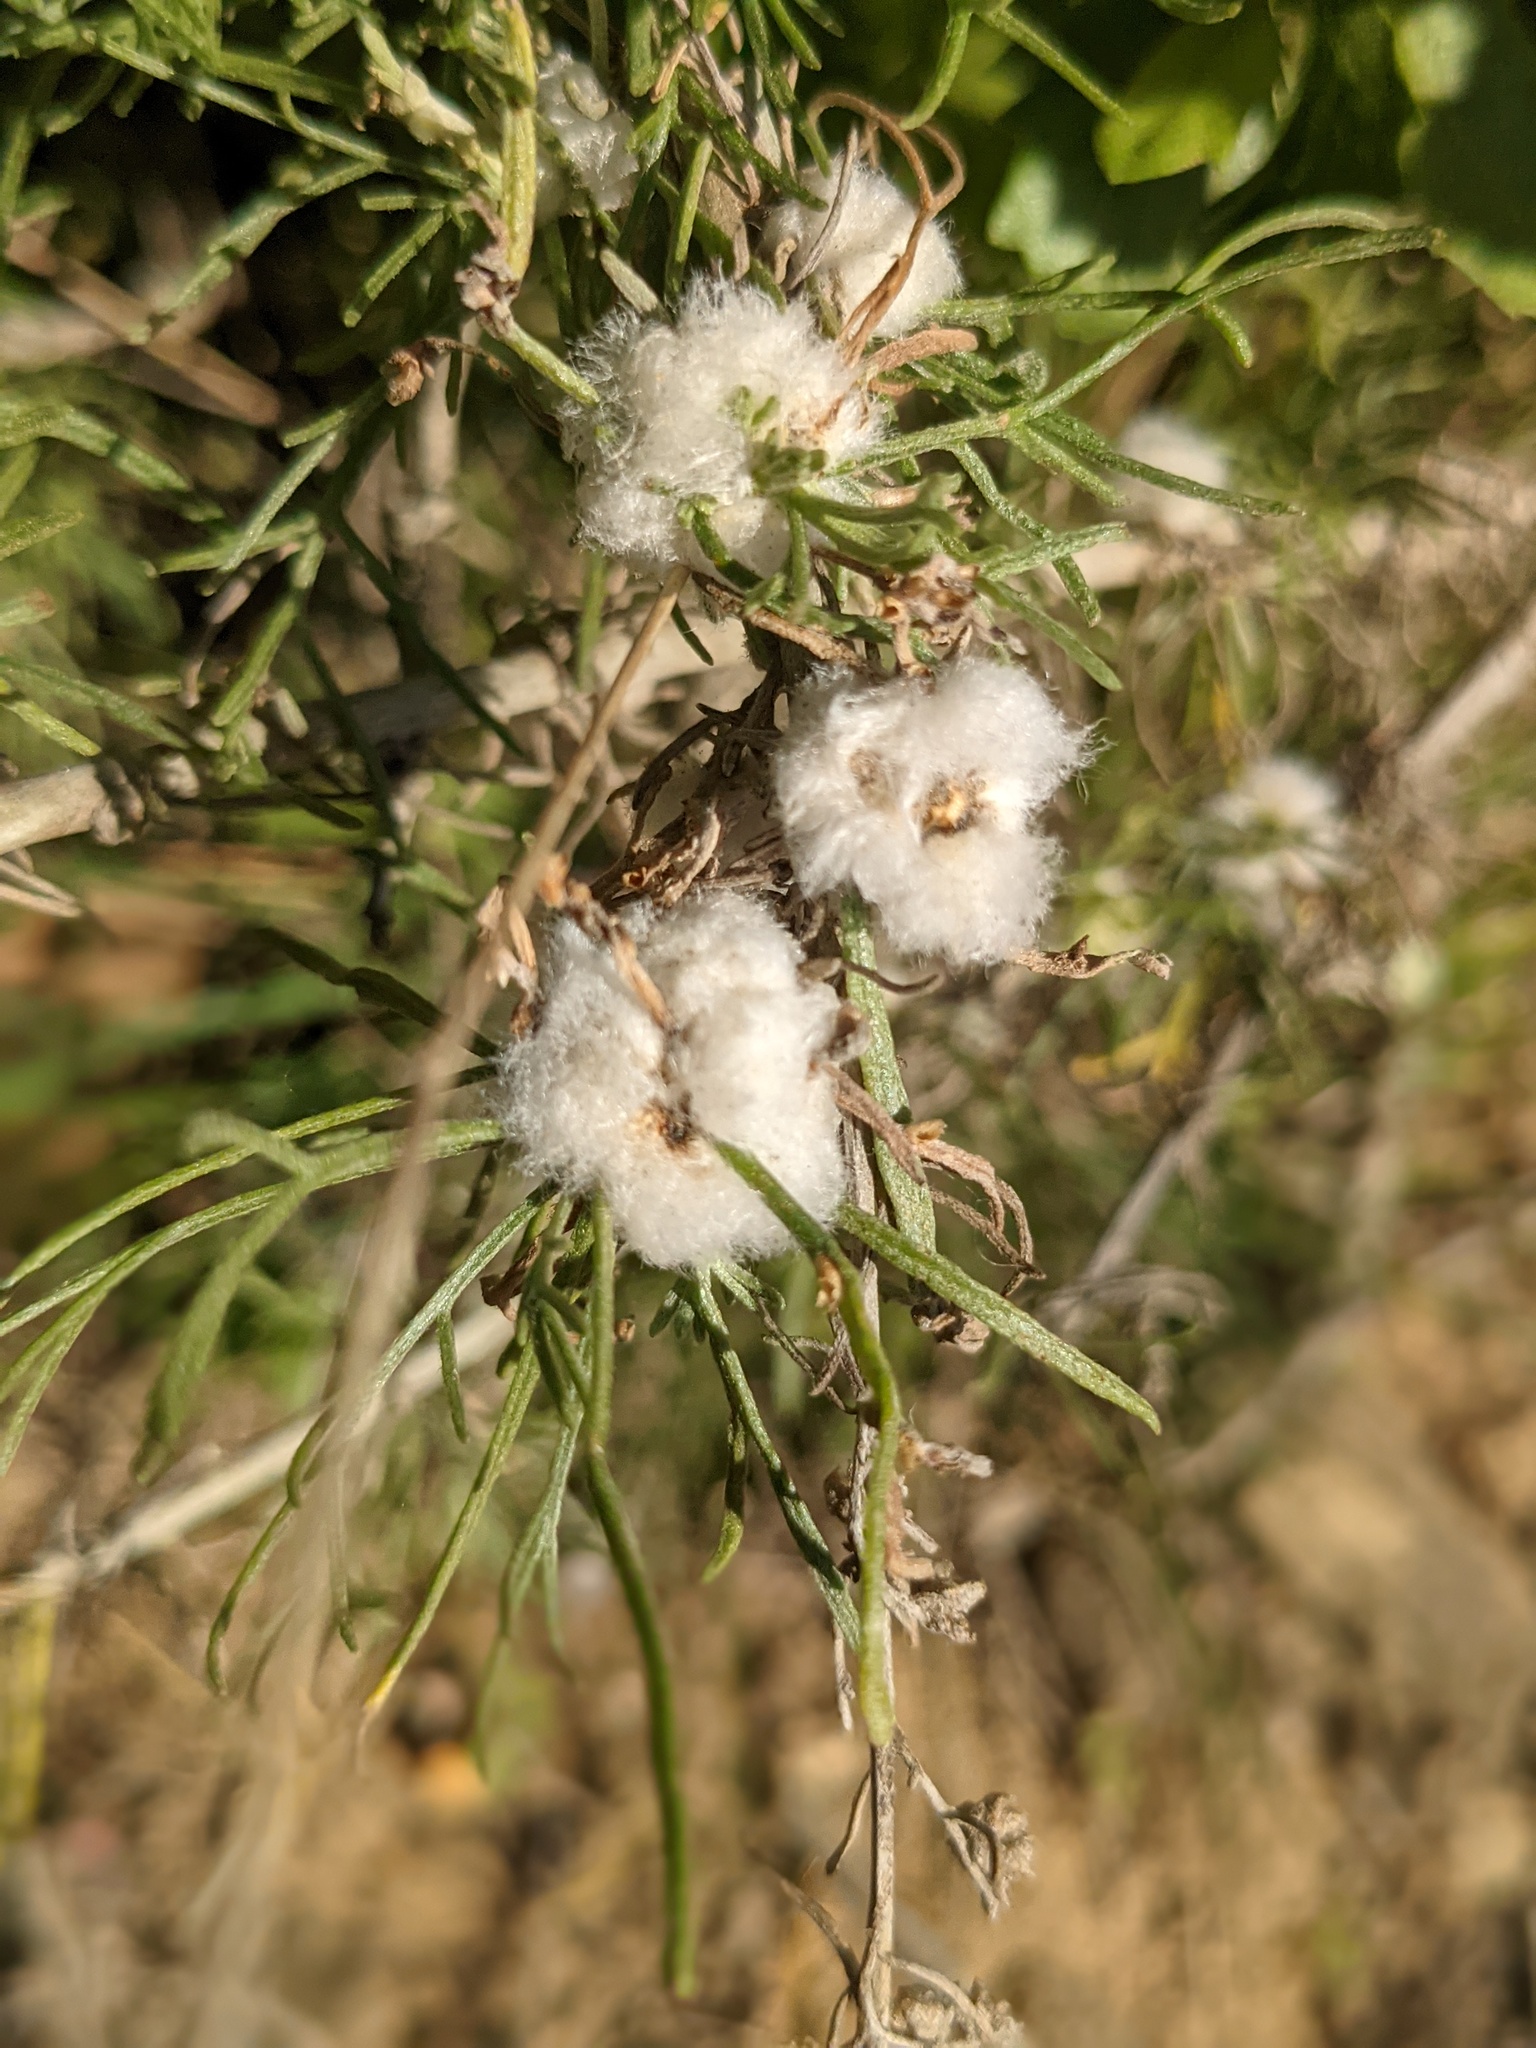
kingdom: Animalia
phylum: Arthropoda
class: Insecta
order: Diptera
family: Cecidomyiidae
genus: Rhopalomyia
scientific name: Rhopalomyia floccosa
